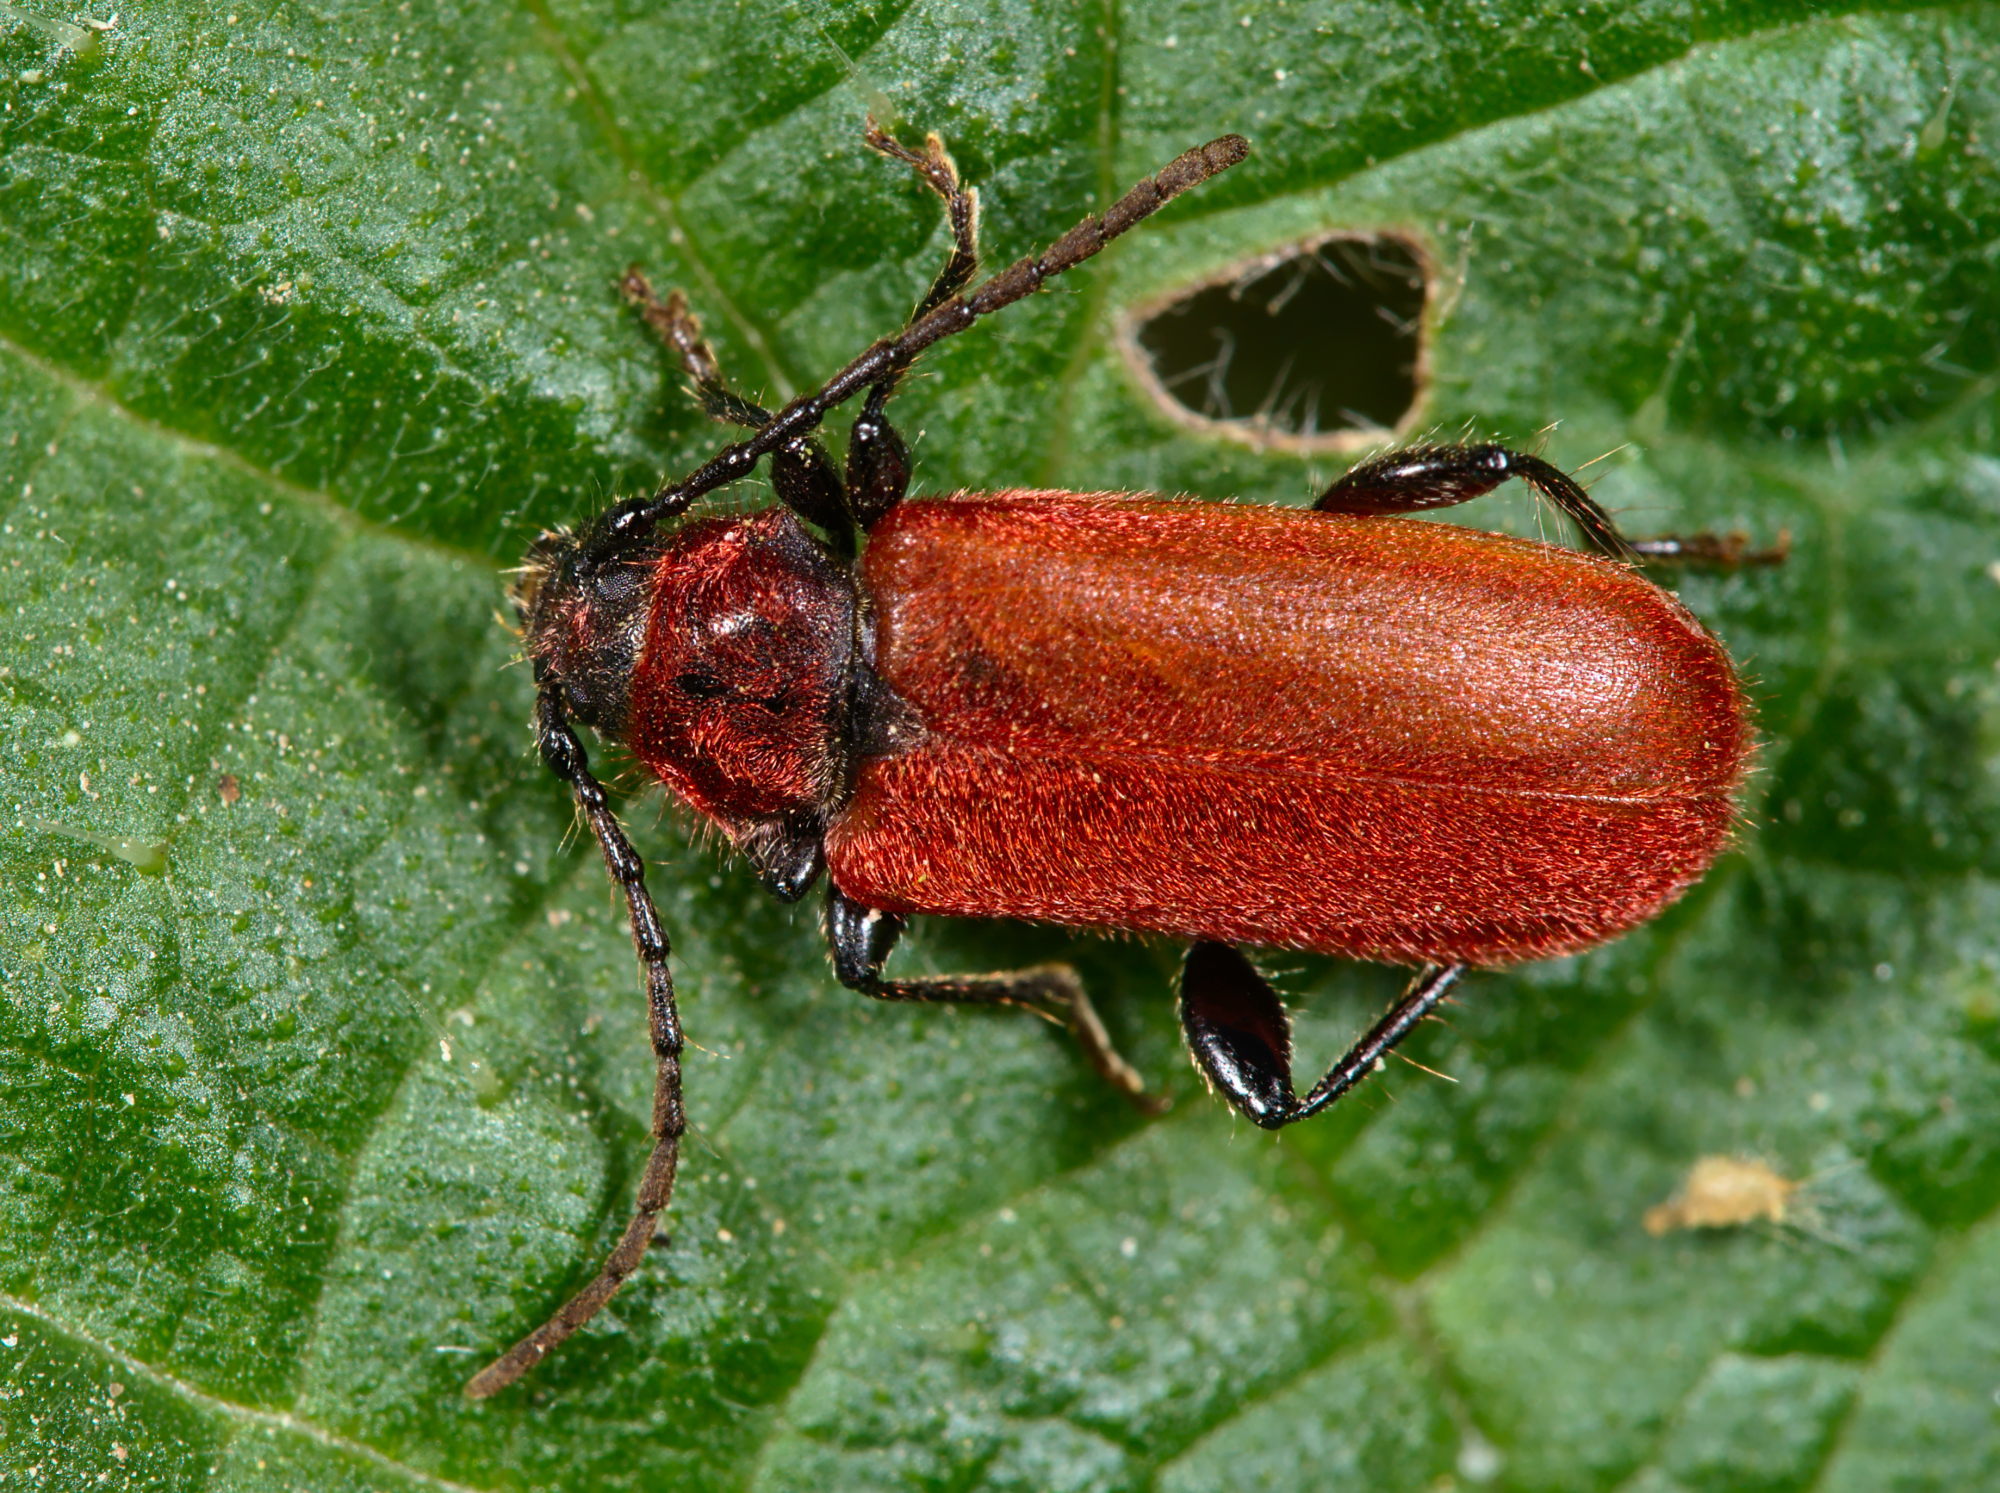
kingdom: Animalia
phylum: Arthropoda
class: Insecta
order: Coleoptera
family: Cerambycidae
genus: Pyrrhidium
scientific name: Pyrrhidium sanguineum
